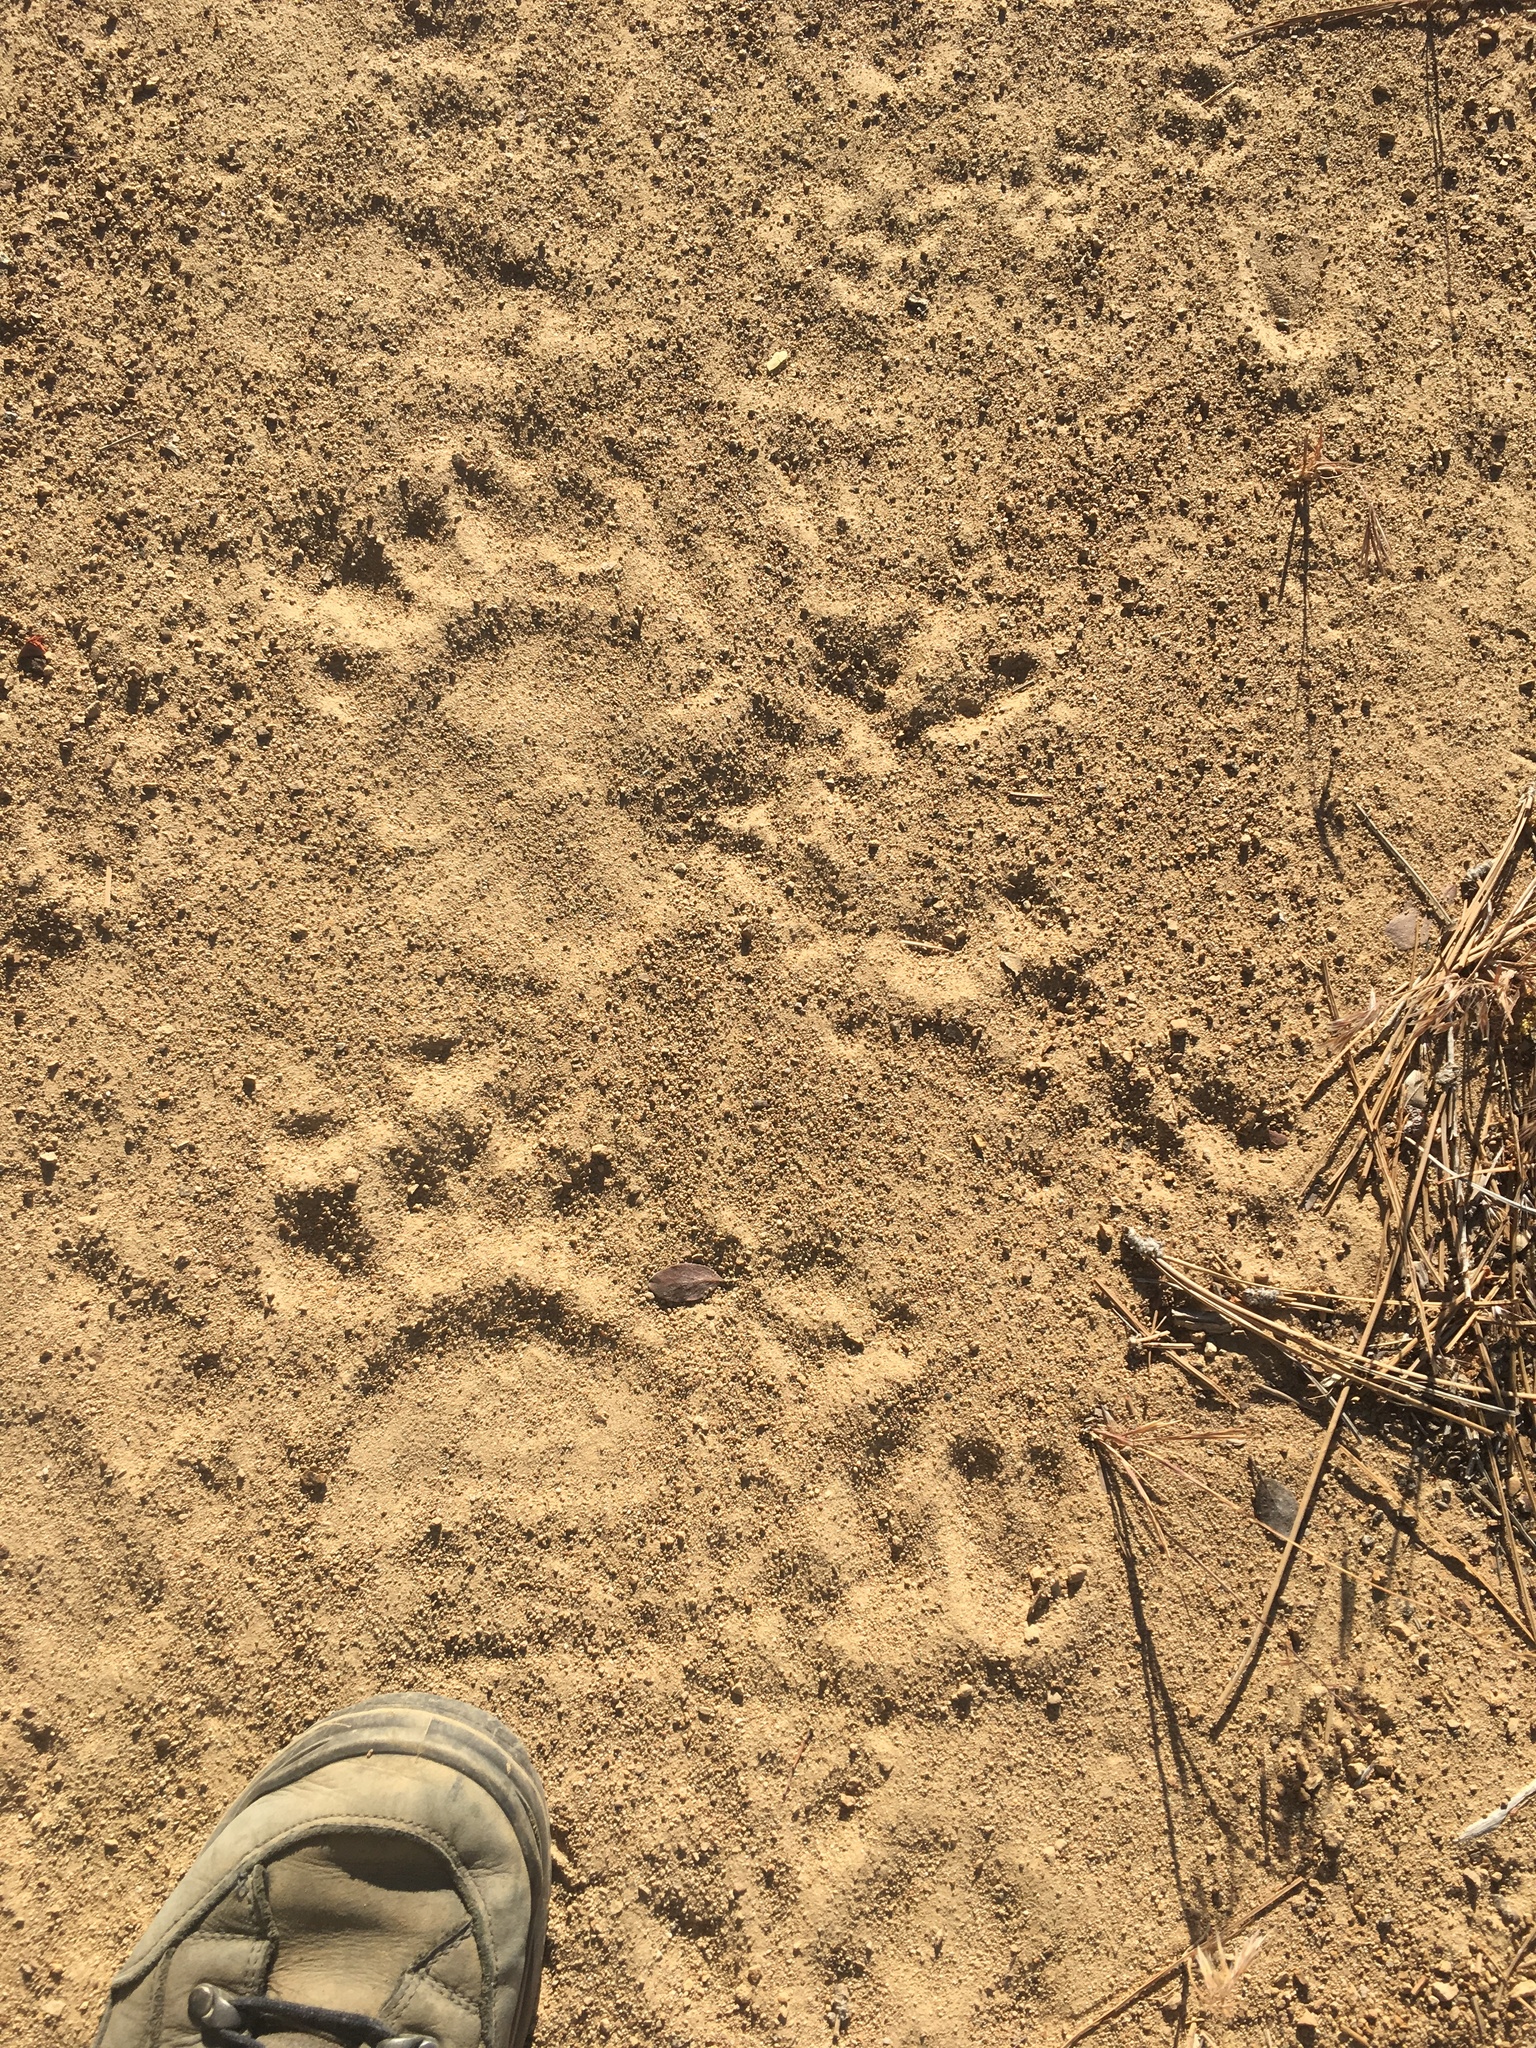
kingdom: Animalia
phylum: Chordata
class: Mammalia
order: Carnivora
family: Ursidae
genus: Ursus
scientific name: Ursus americanus
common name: American black bear
